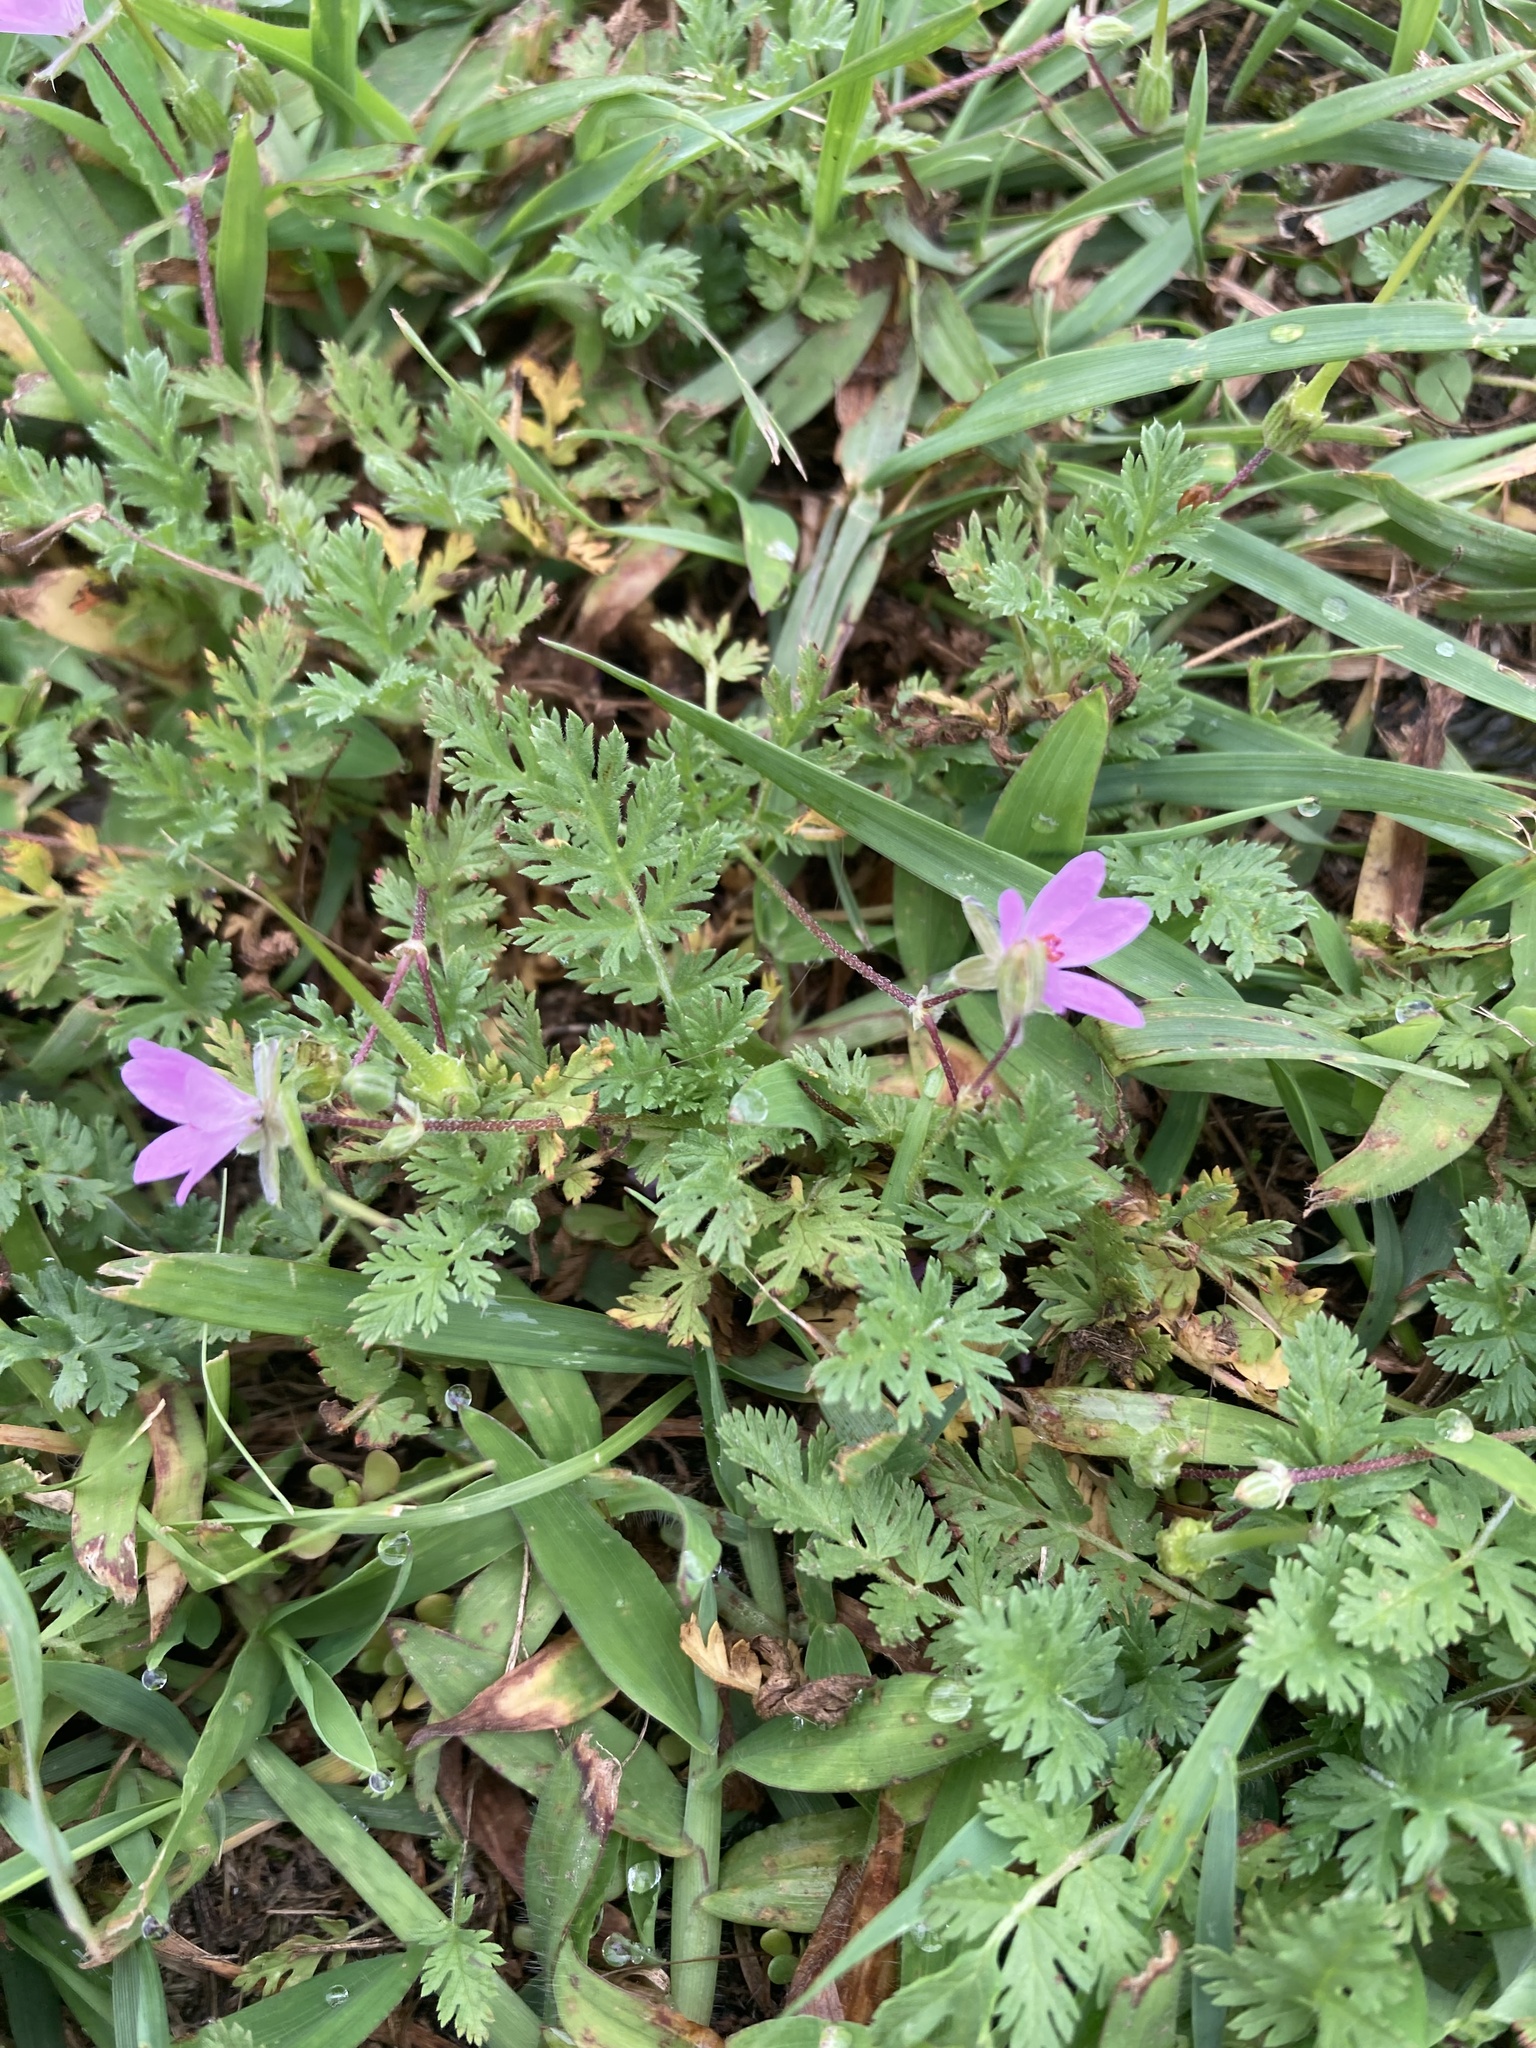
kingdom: Plantae
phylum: Tracheophyta
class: Magnoliopsida
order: Geraniales
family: Geraniaceae
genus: Erodium
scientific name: Erodium cicutarium
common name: Common stork's-bill
